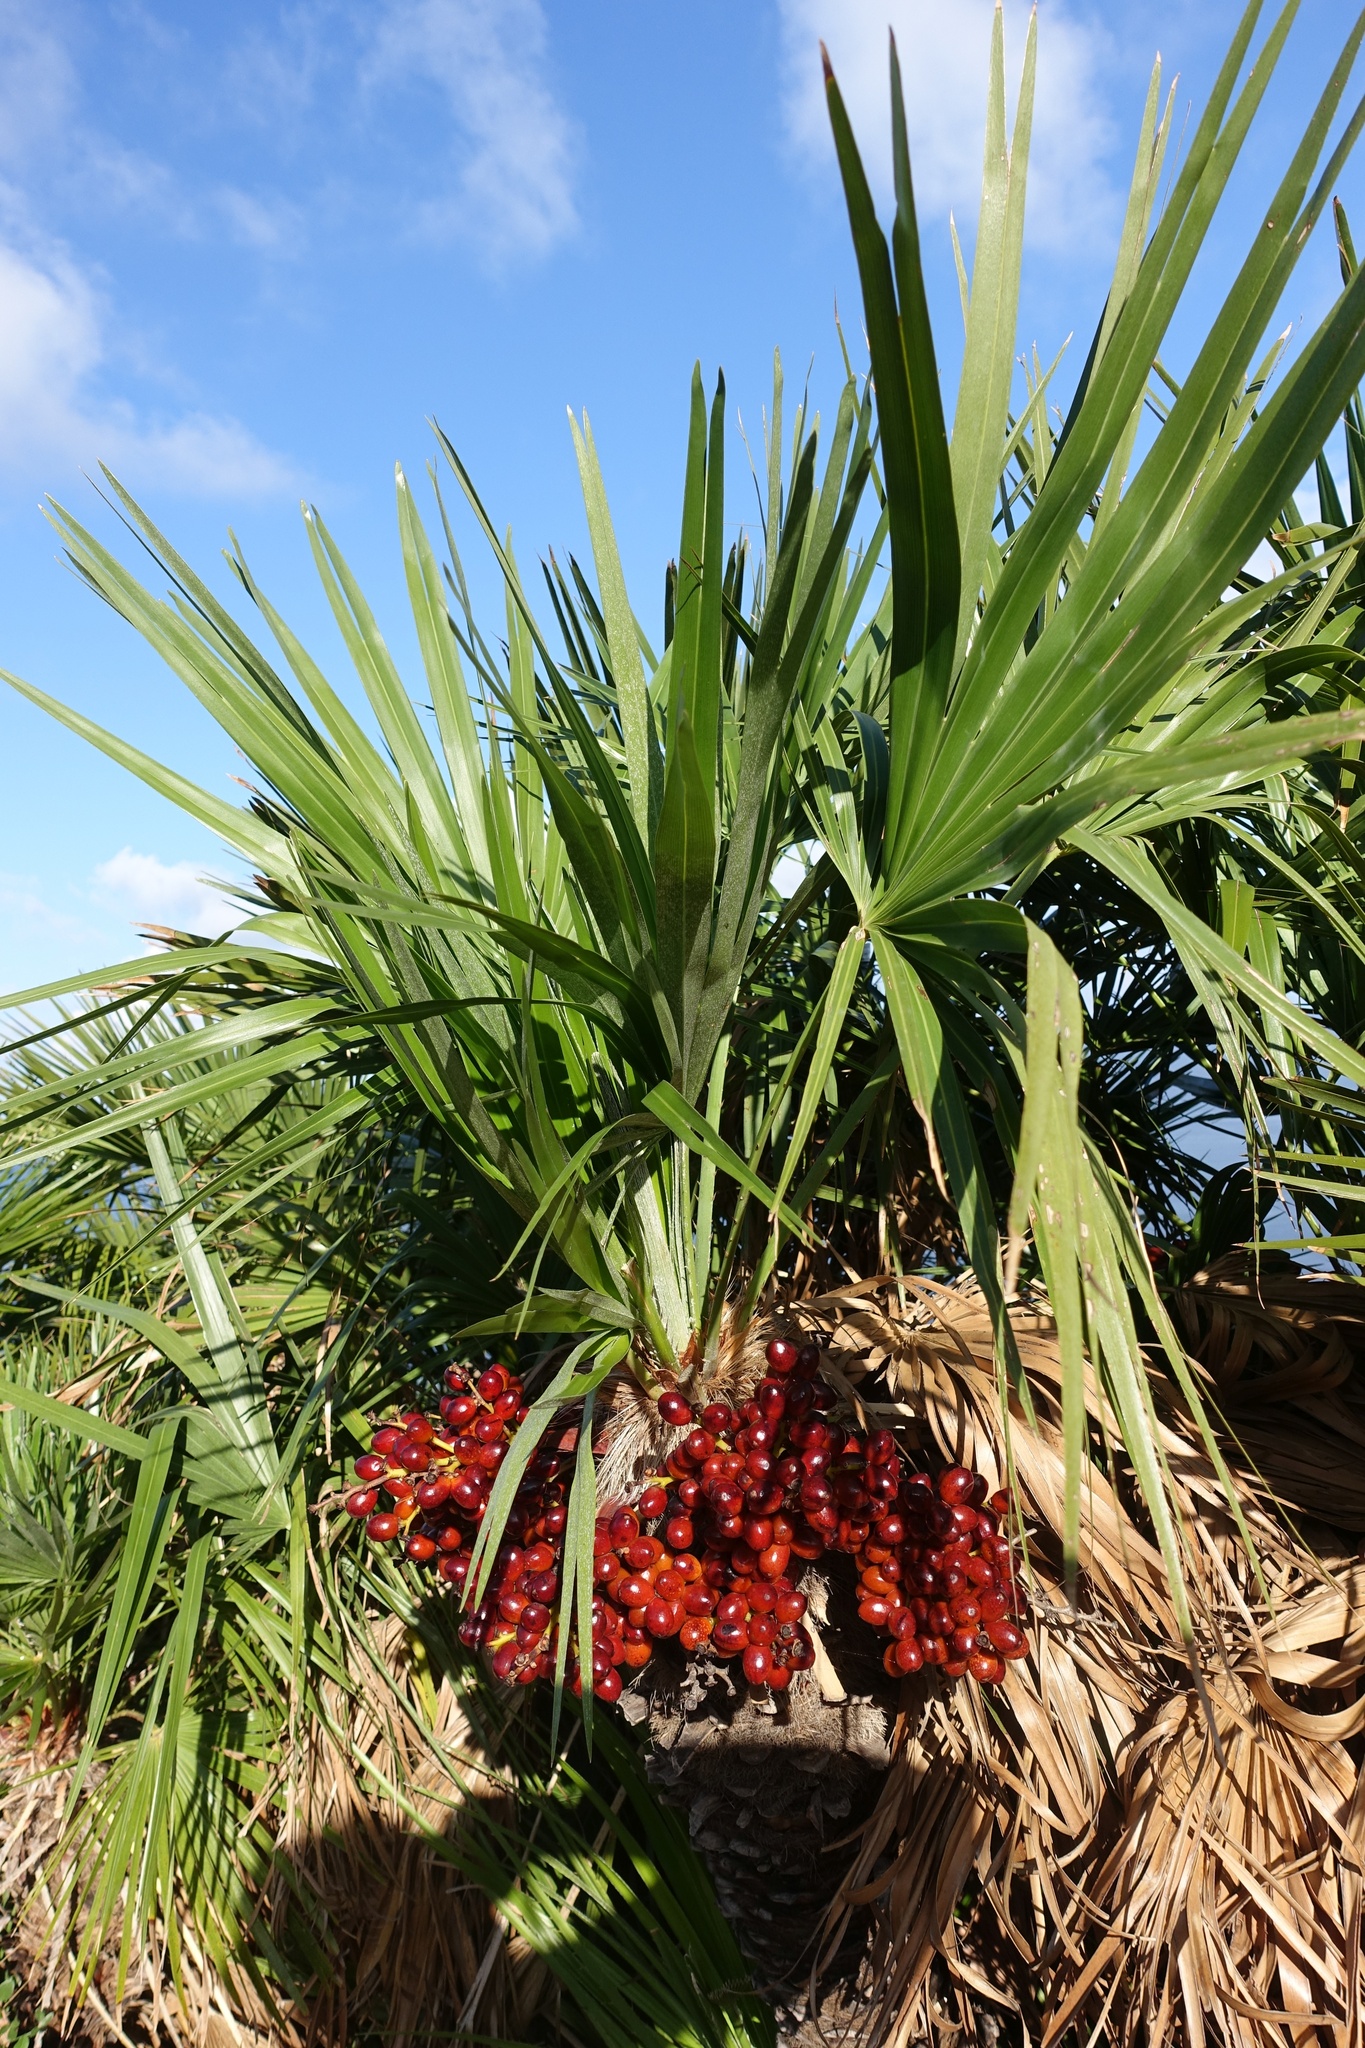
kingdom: Plantae
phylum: Tracheophyta
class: Liliopsida
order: Arecales
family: Arecaceae
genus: Chamaerops
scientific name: Chamaerops humilis
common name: Dwarf fan palm
